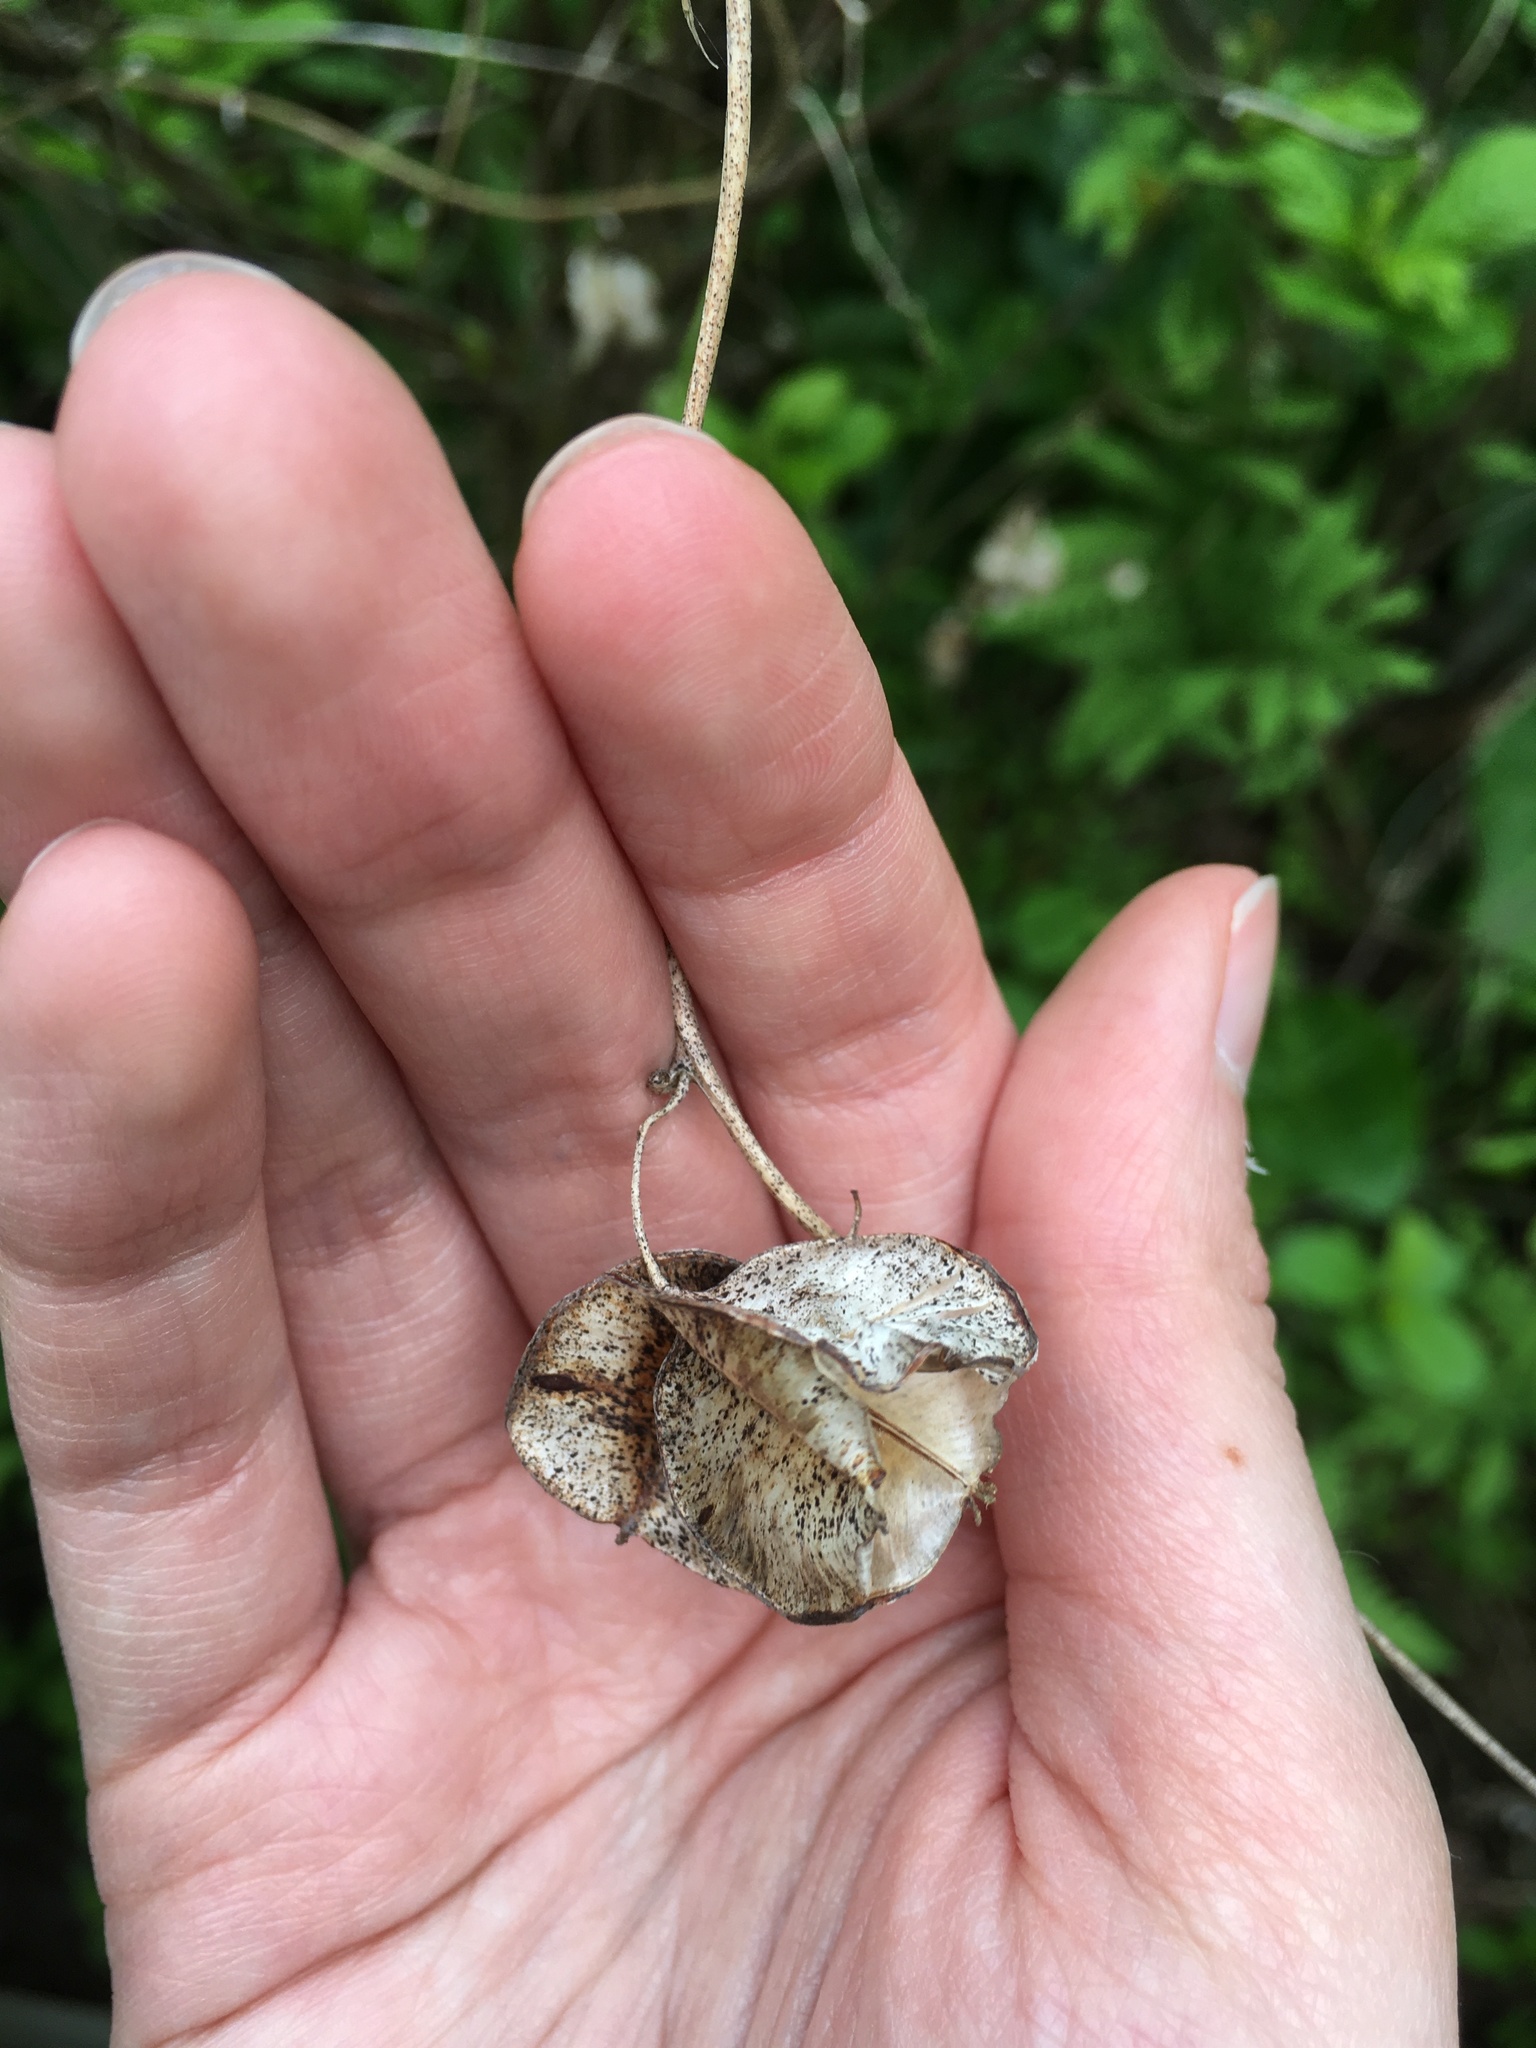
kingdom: Plantae
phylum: Tracheophyta
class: Liliopsida
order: Dioscoreales
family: Dioscoreaceae
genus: Dioscorea
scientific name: Dioscorea villosa
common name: Wild yam
